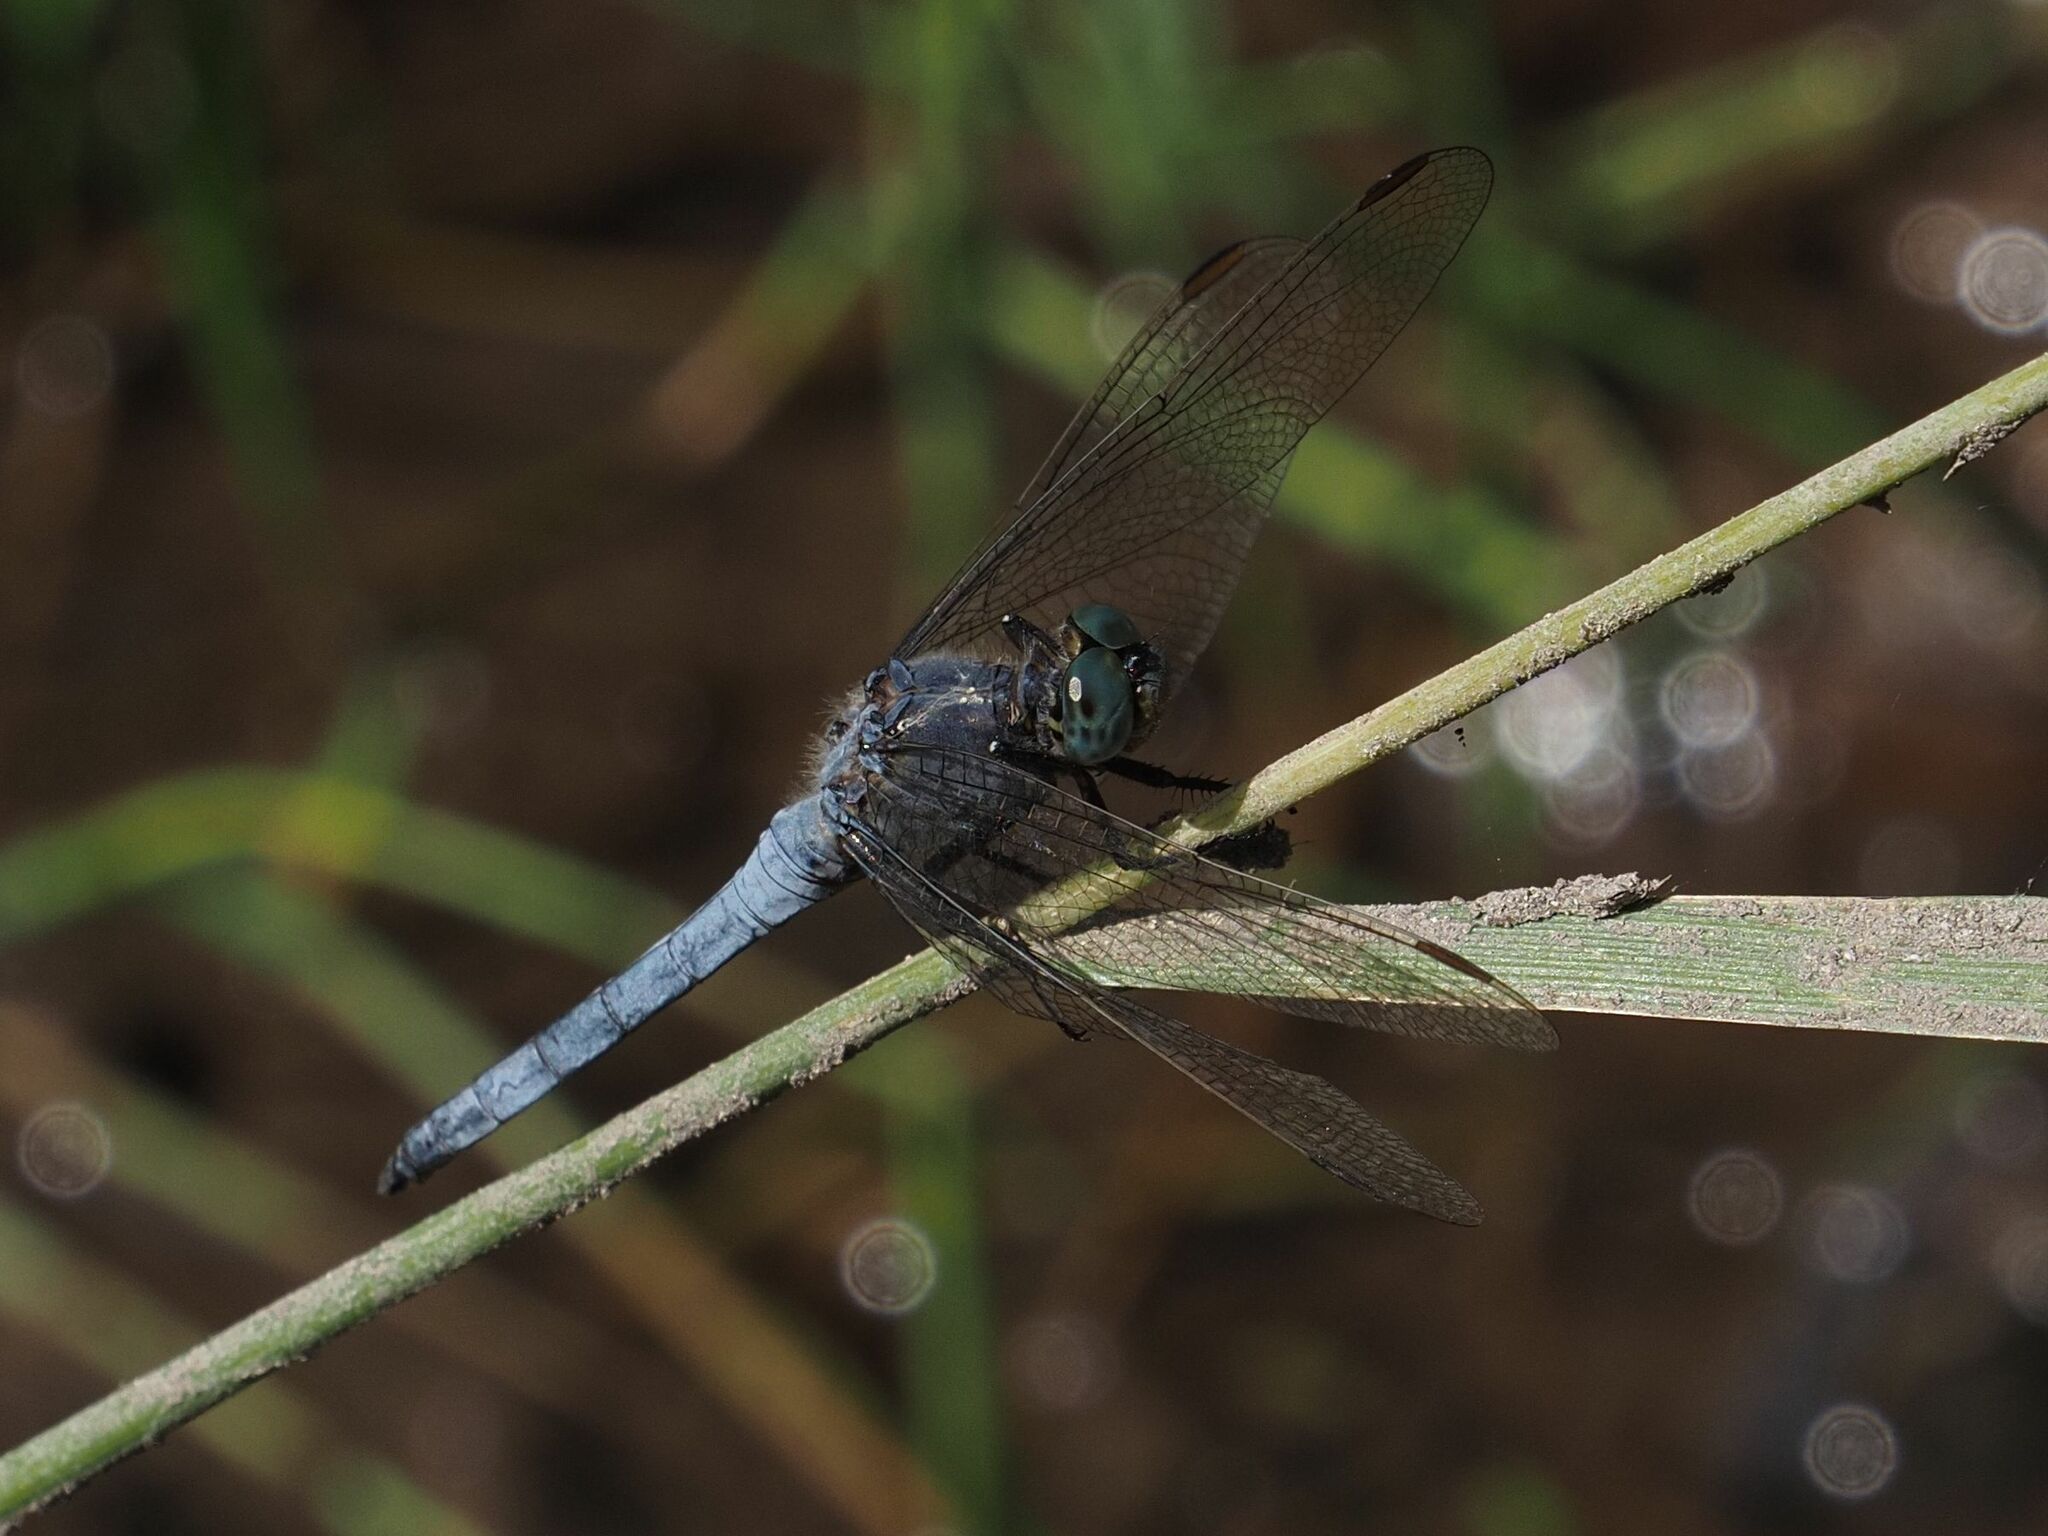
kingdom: Animalia
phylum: Arthropoda
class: Insecta
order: Odonata
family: Libellulidae
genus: Orthetrum
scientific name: Orthetrum coerulescens
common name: Keeled skimmer
